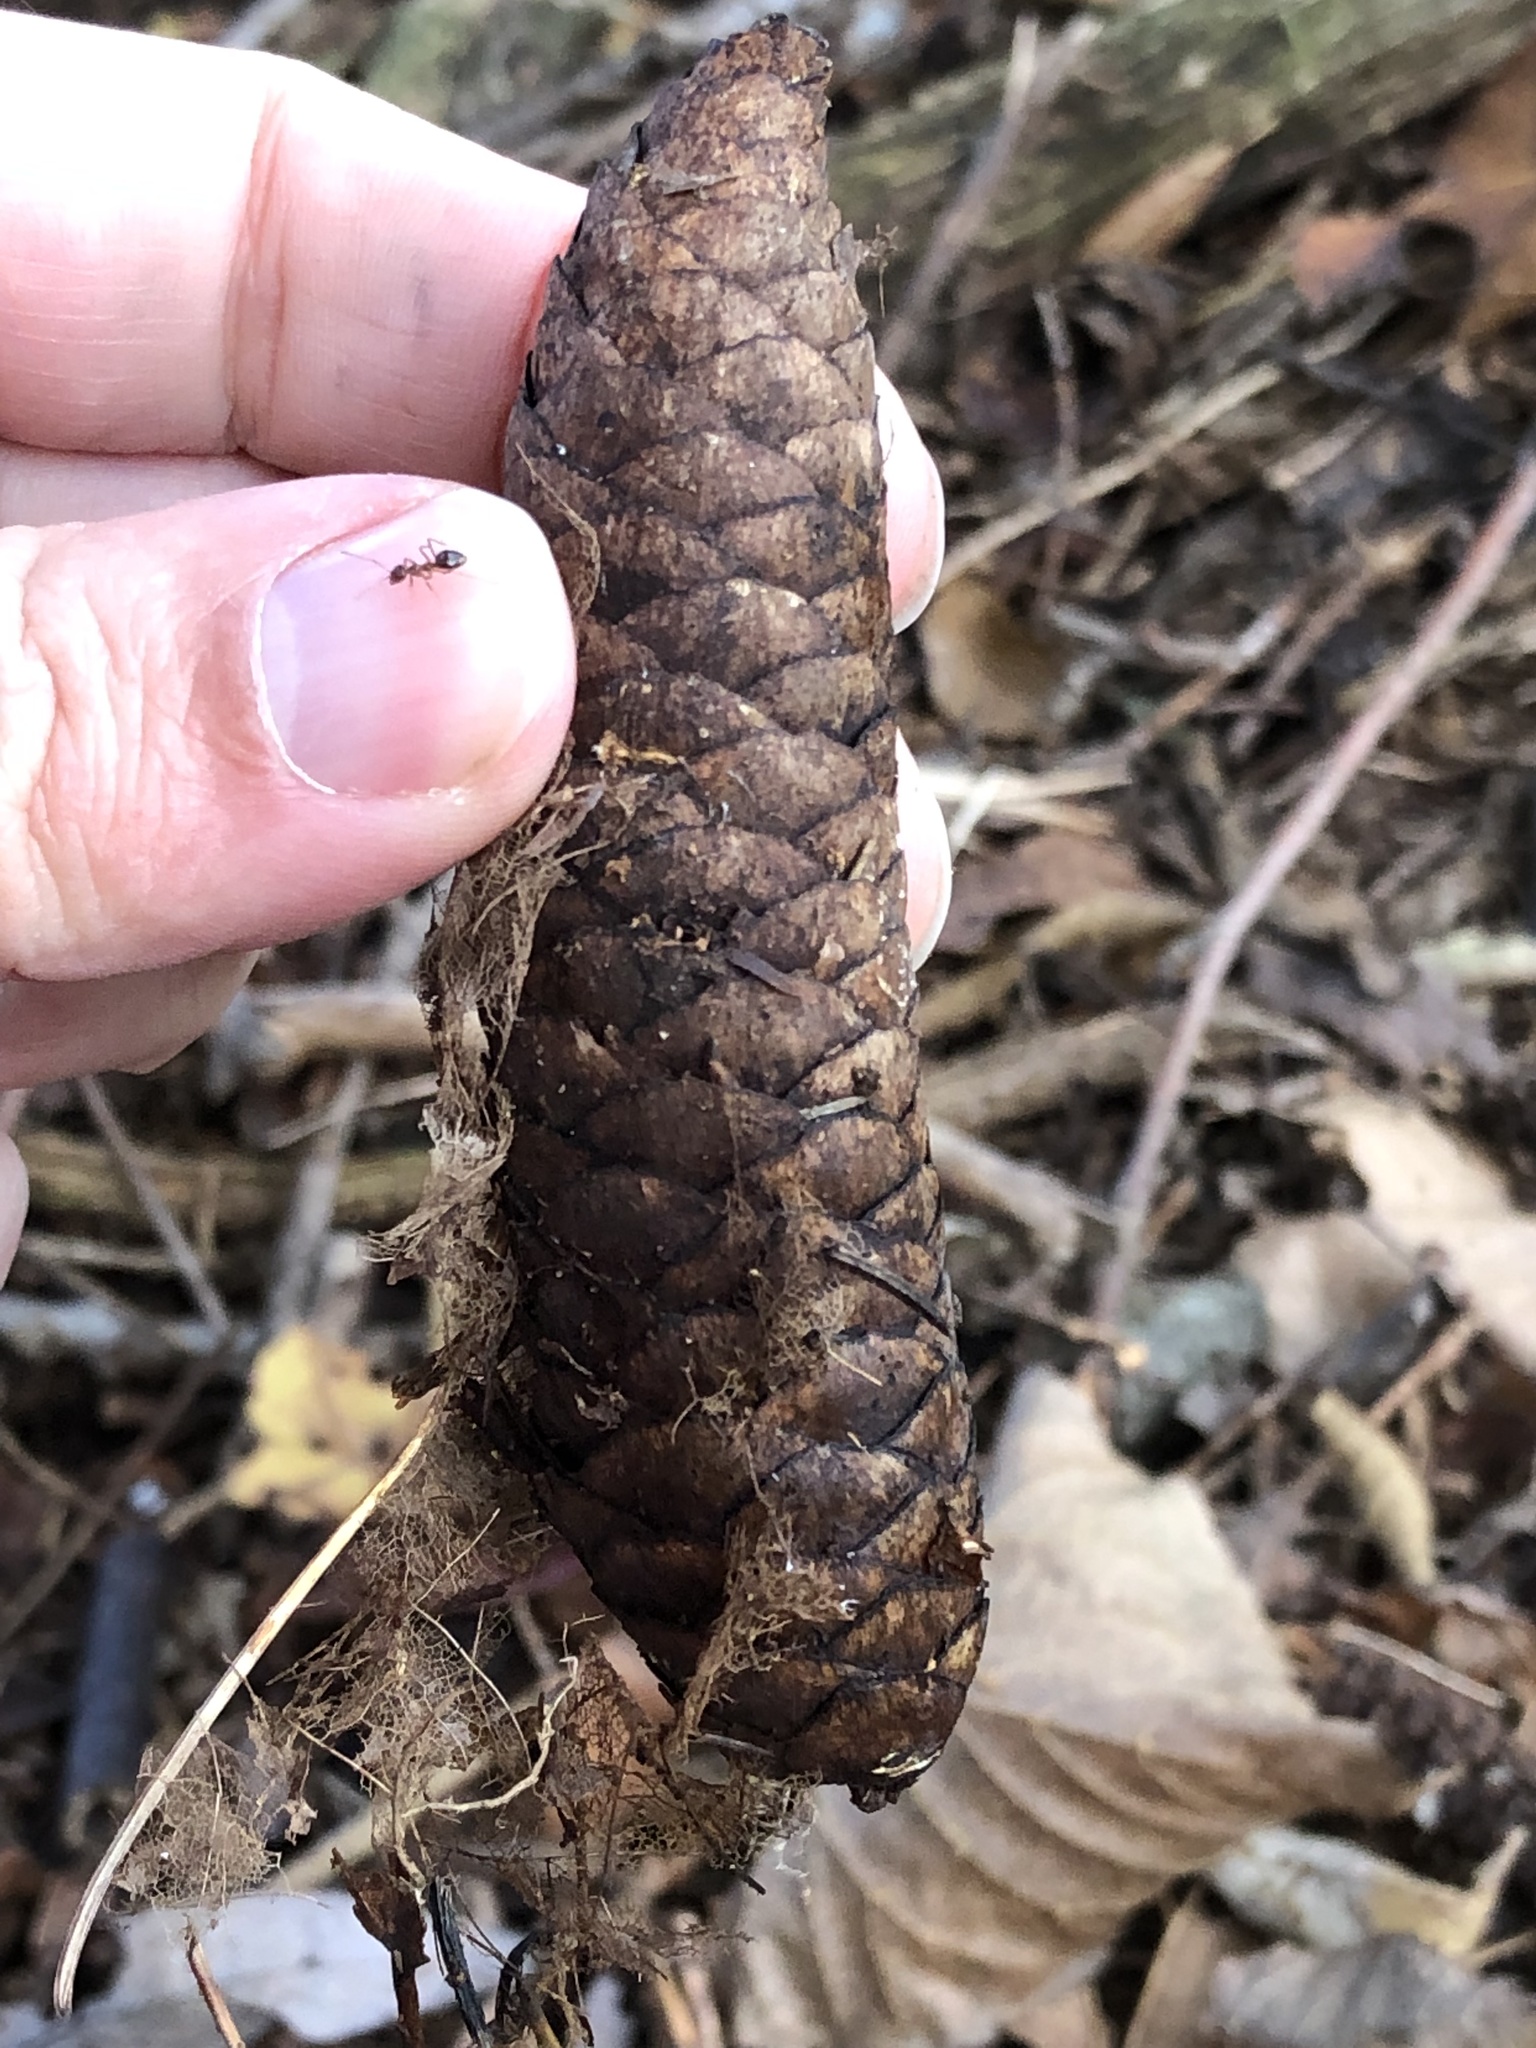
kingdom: Plantae
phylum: Tracheophyta
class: Pinopsida
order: Pinales
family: Pinaceae
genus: Picea
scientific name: Picea abies
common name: Norway spruce
